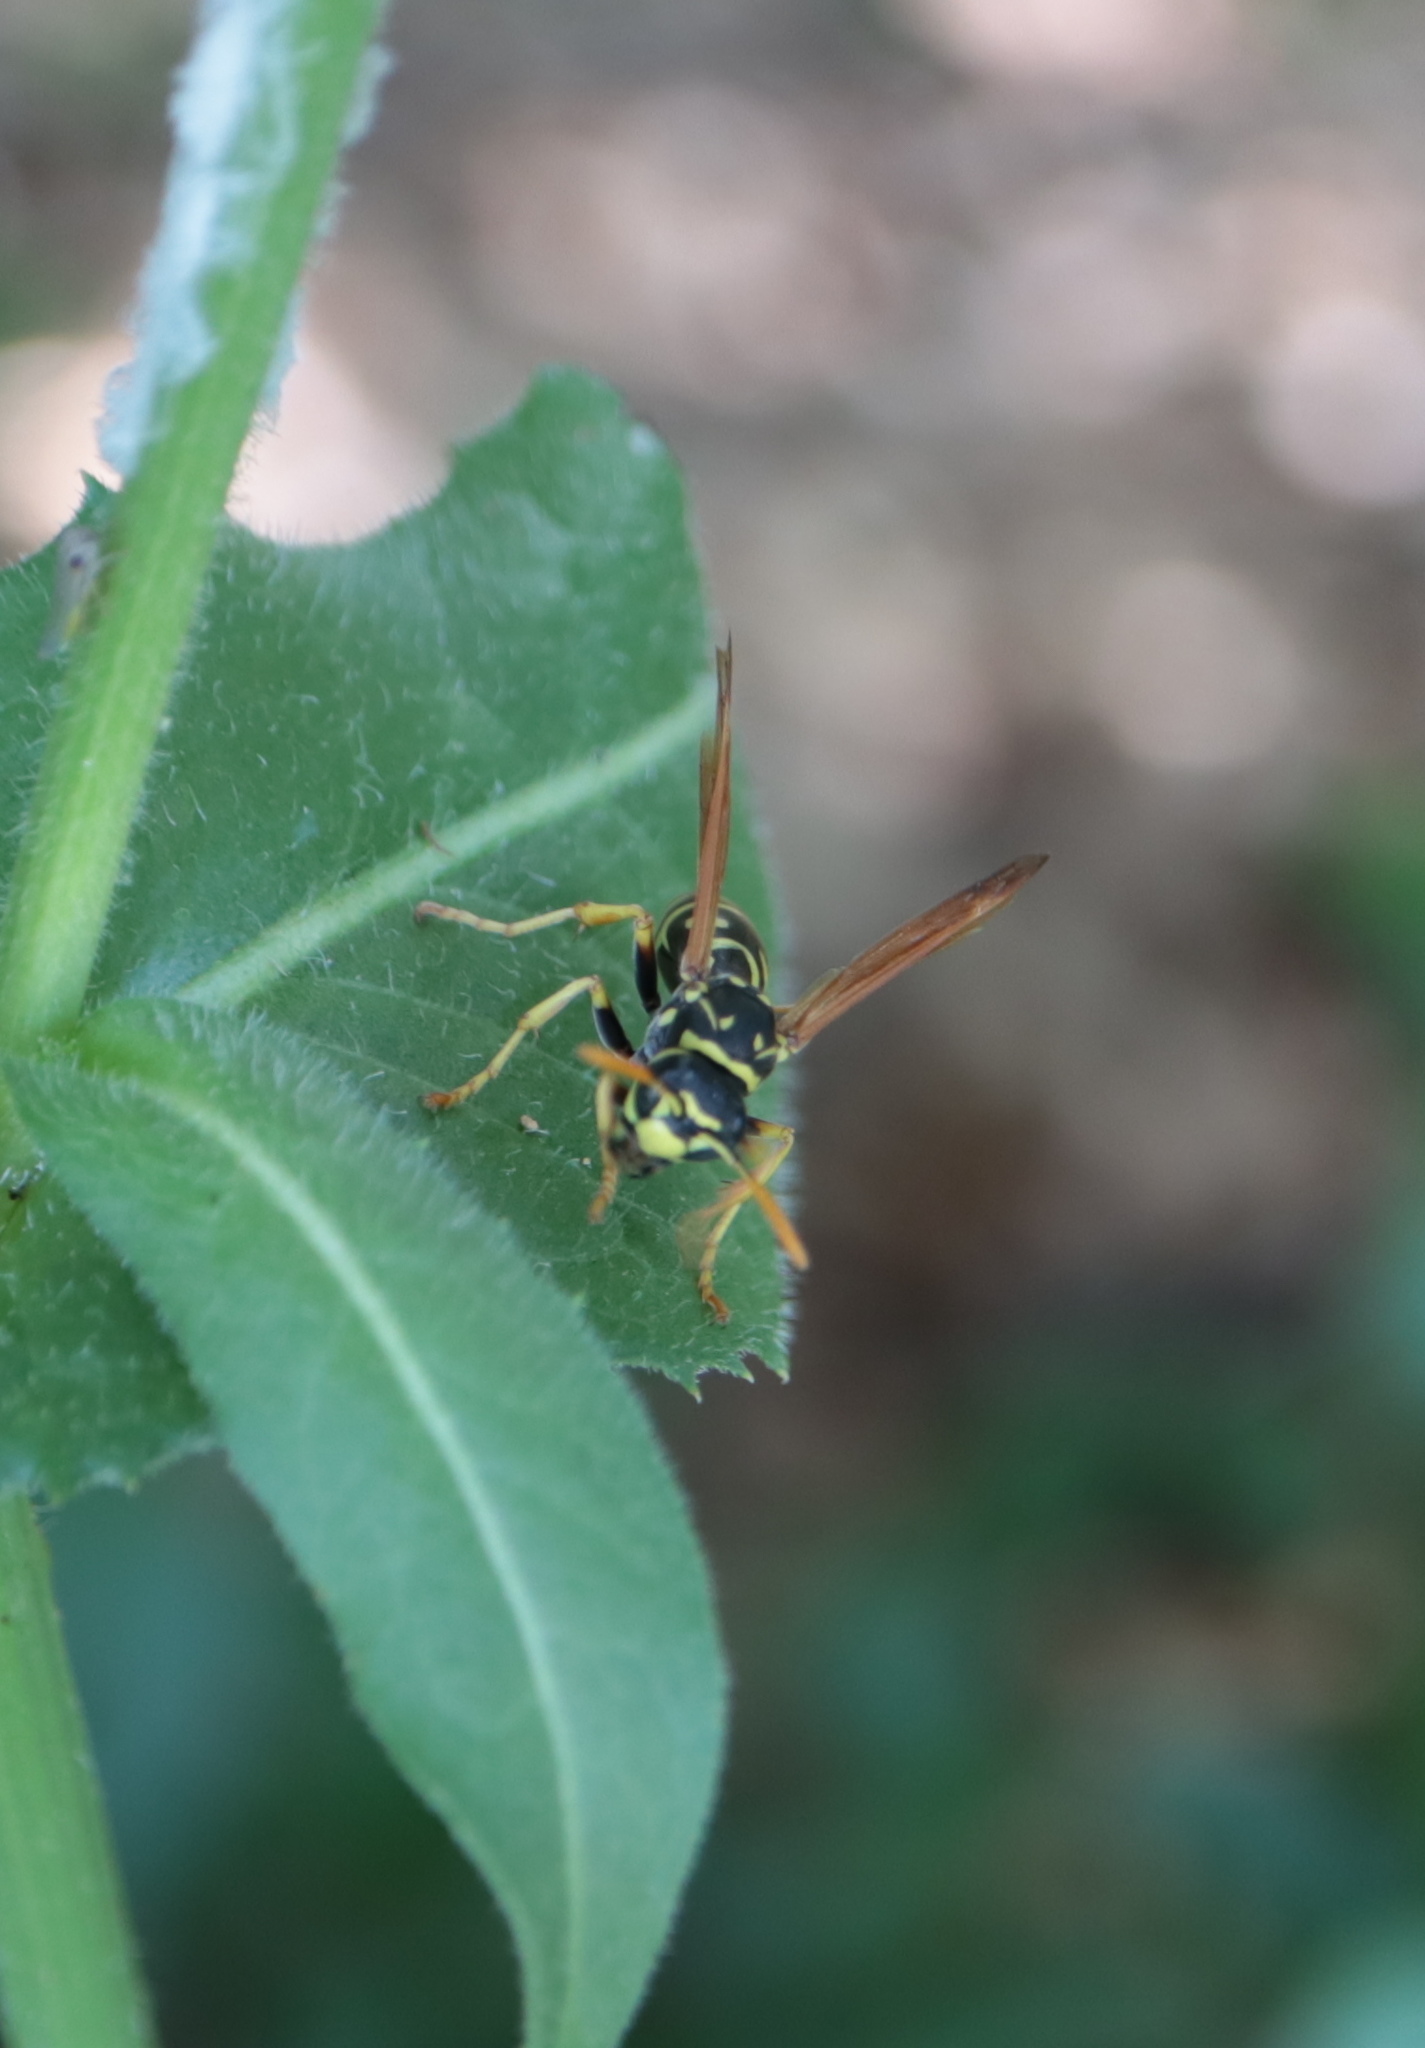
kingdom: Animalia
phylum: Arthropoda
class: Insecta
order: Hymenoptera
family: Eumenidae
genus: Polistes
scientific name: Polistes dominula
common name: Paper wasp
